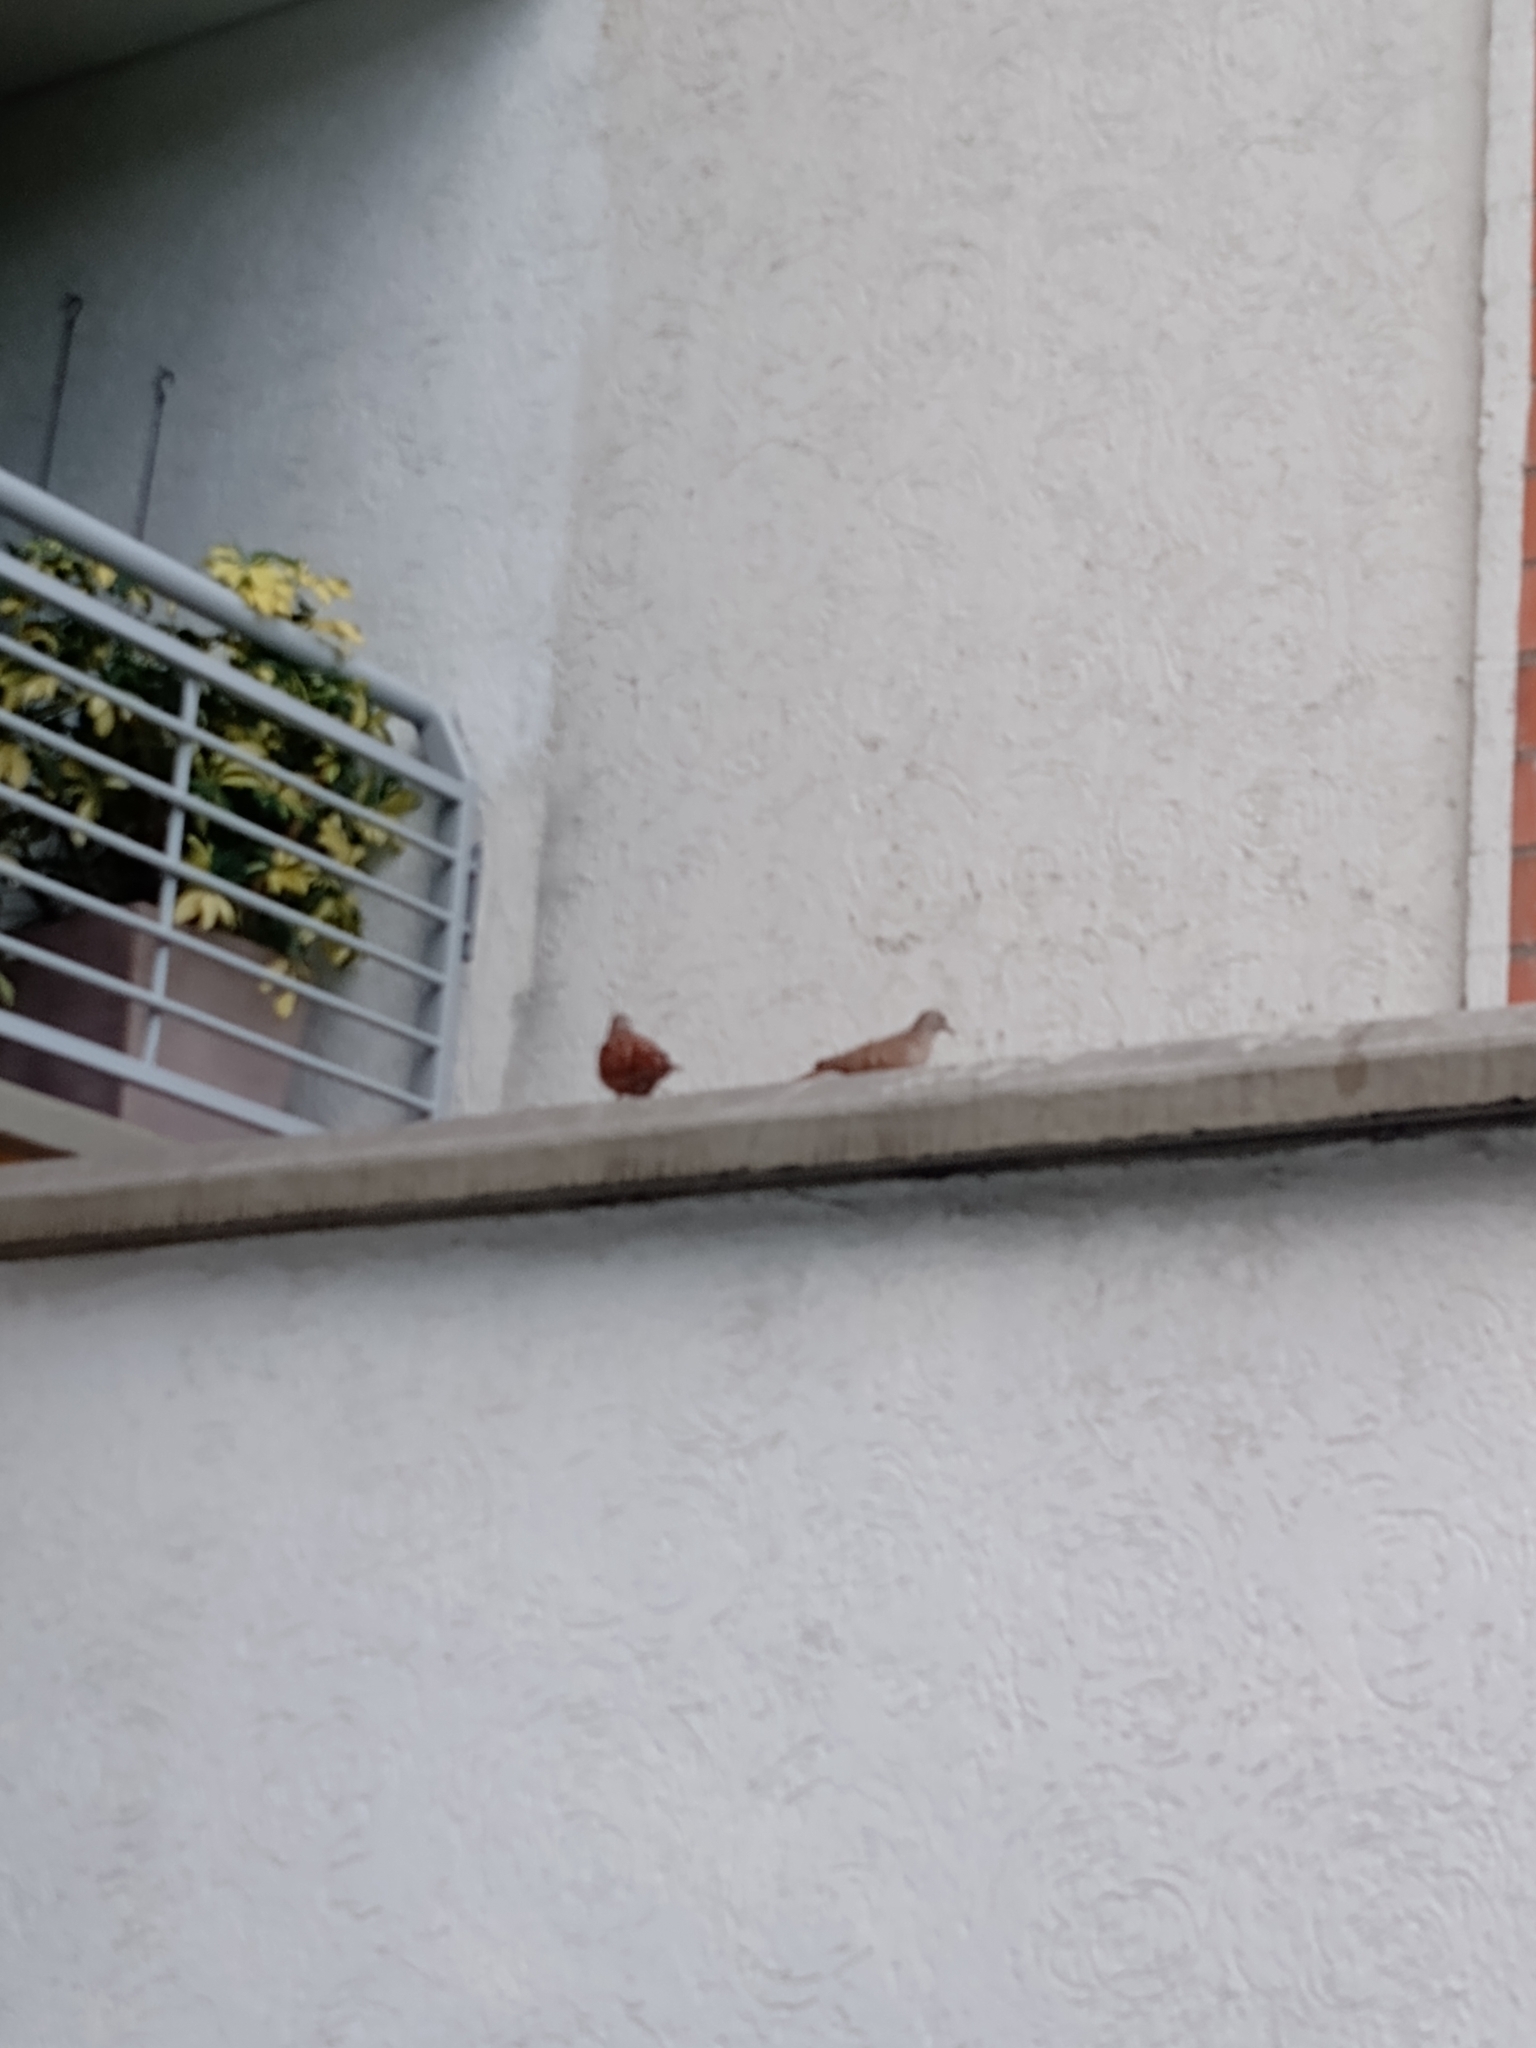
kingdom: Animalia
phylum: Chordata
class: Aves
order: Columbiformes
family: Columbidae
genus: Columbina
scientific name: Columbina talpacoti
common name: Ruddy ground dove
